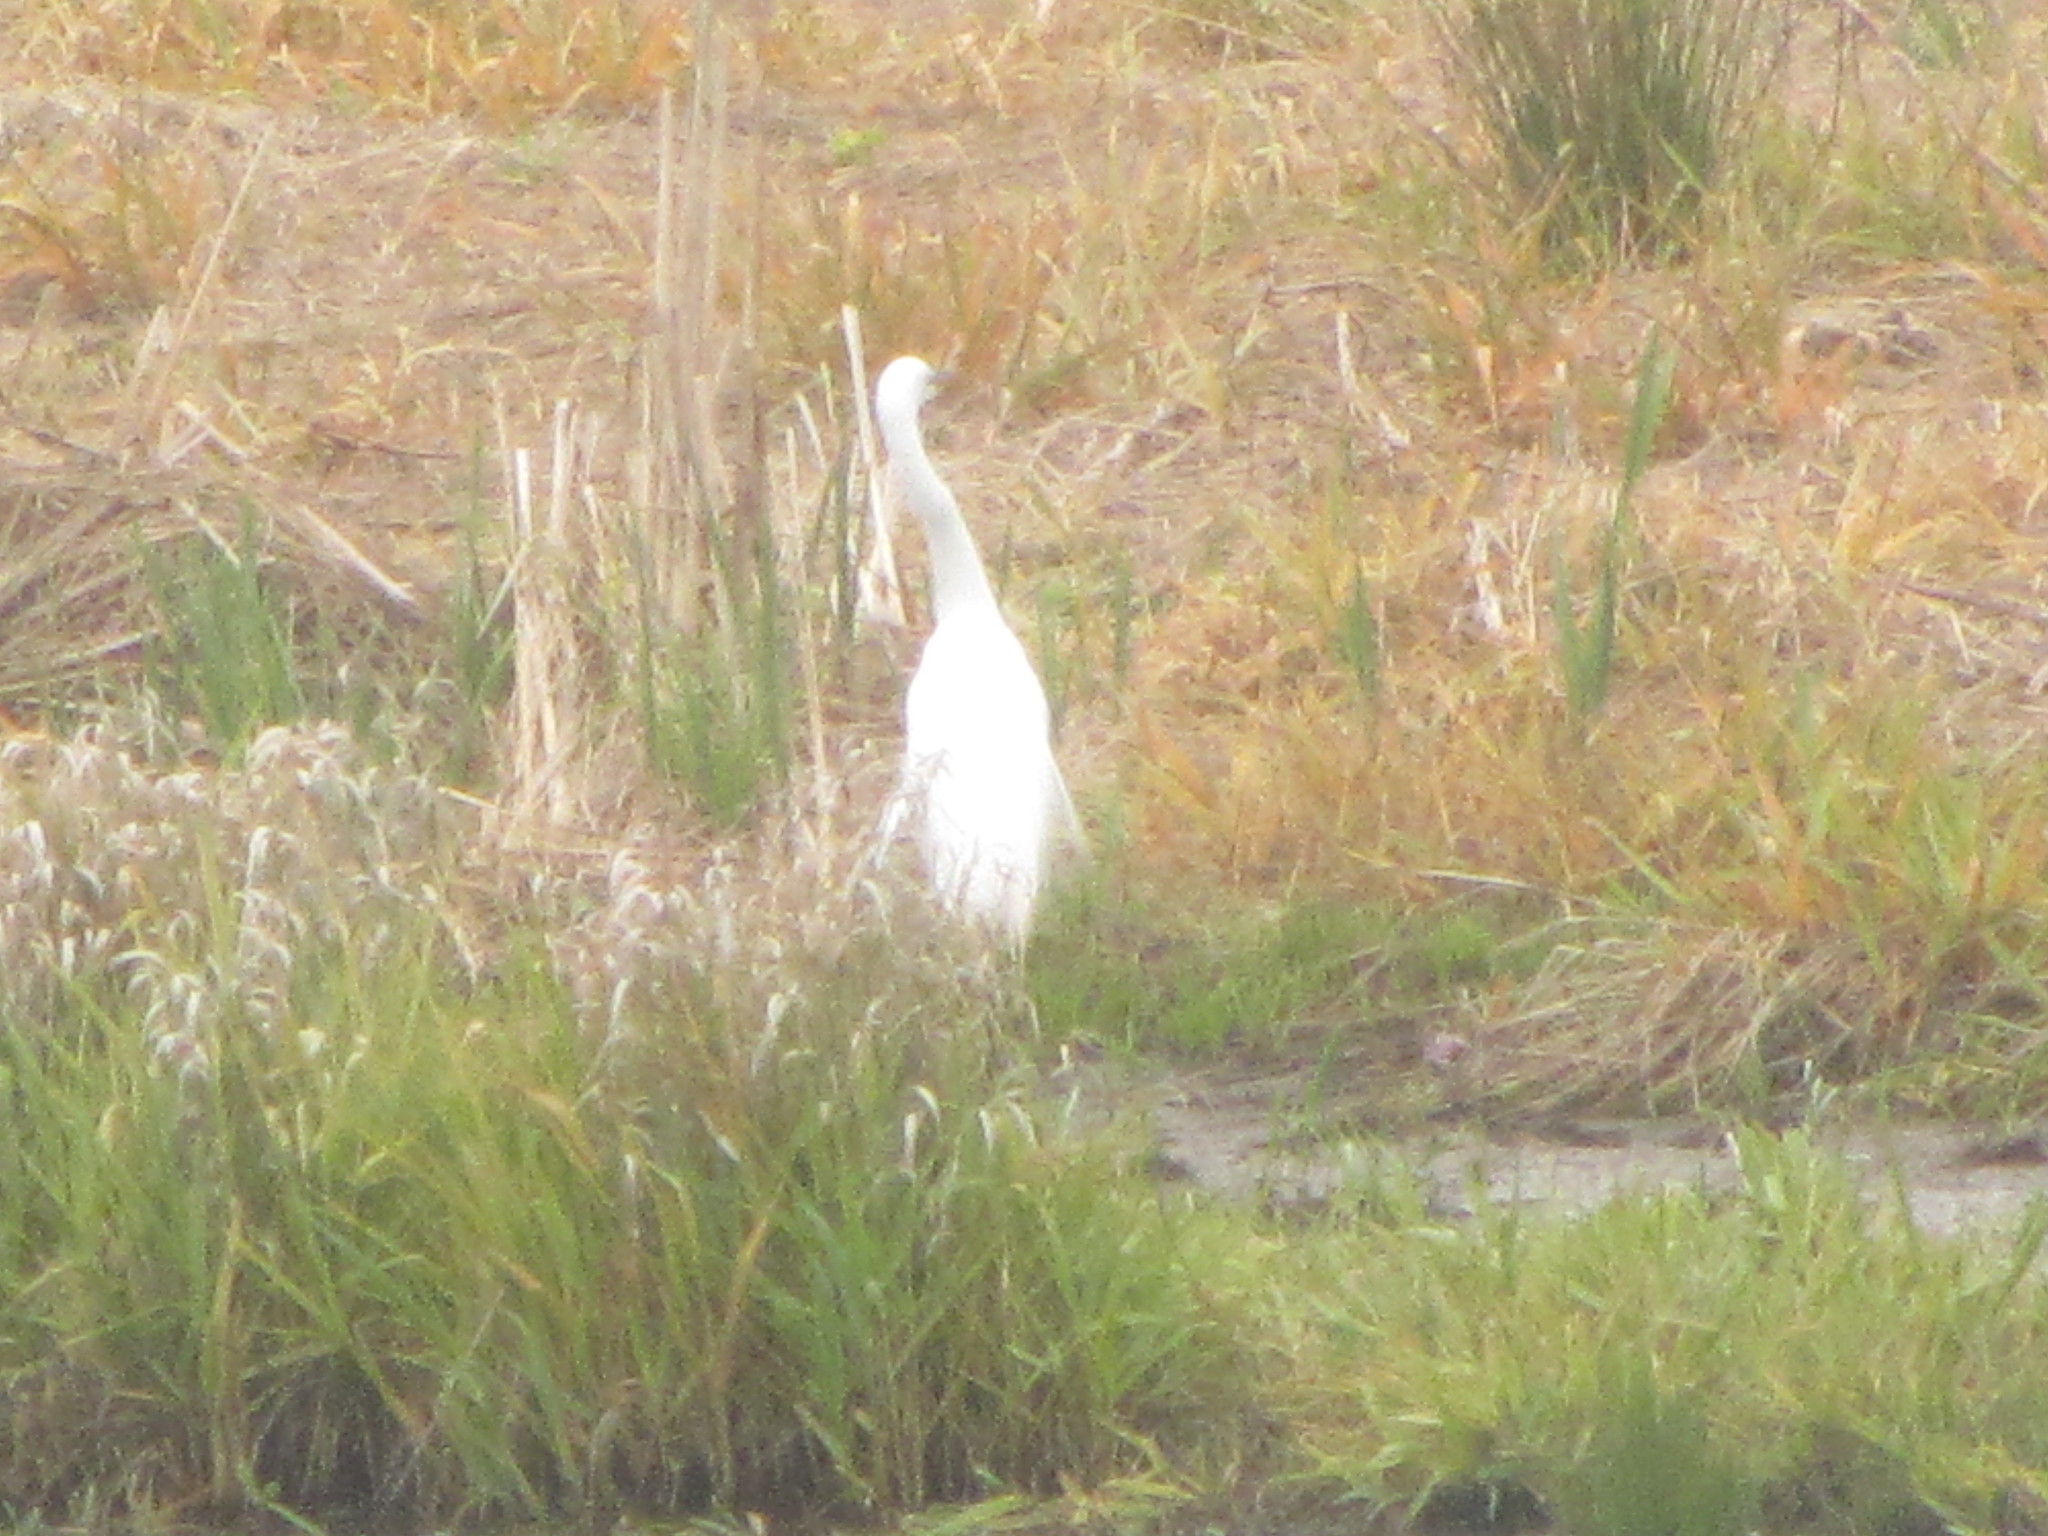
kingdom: Animalia
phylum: Chordata
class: Aves
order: Pelecaniformes
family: Ardeidae
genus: Ardea
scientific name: Ardea alba
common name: Great egret
